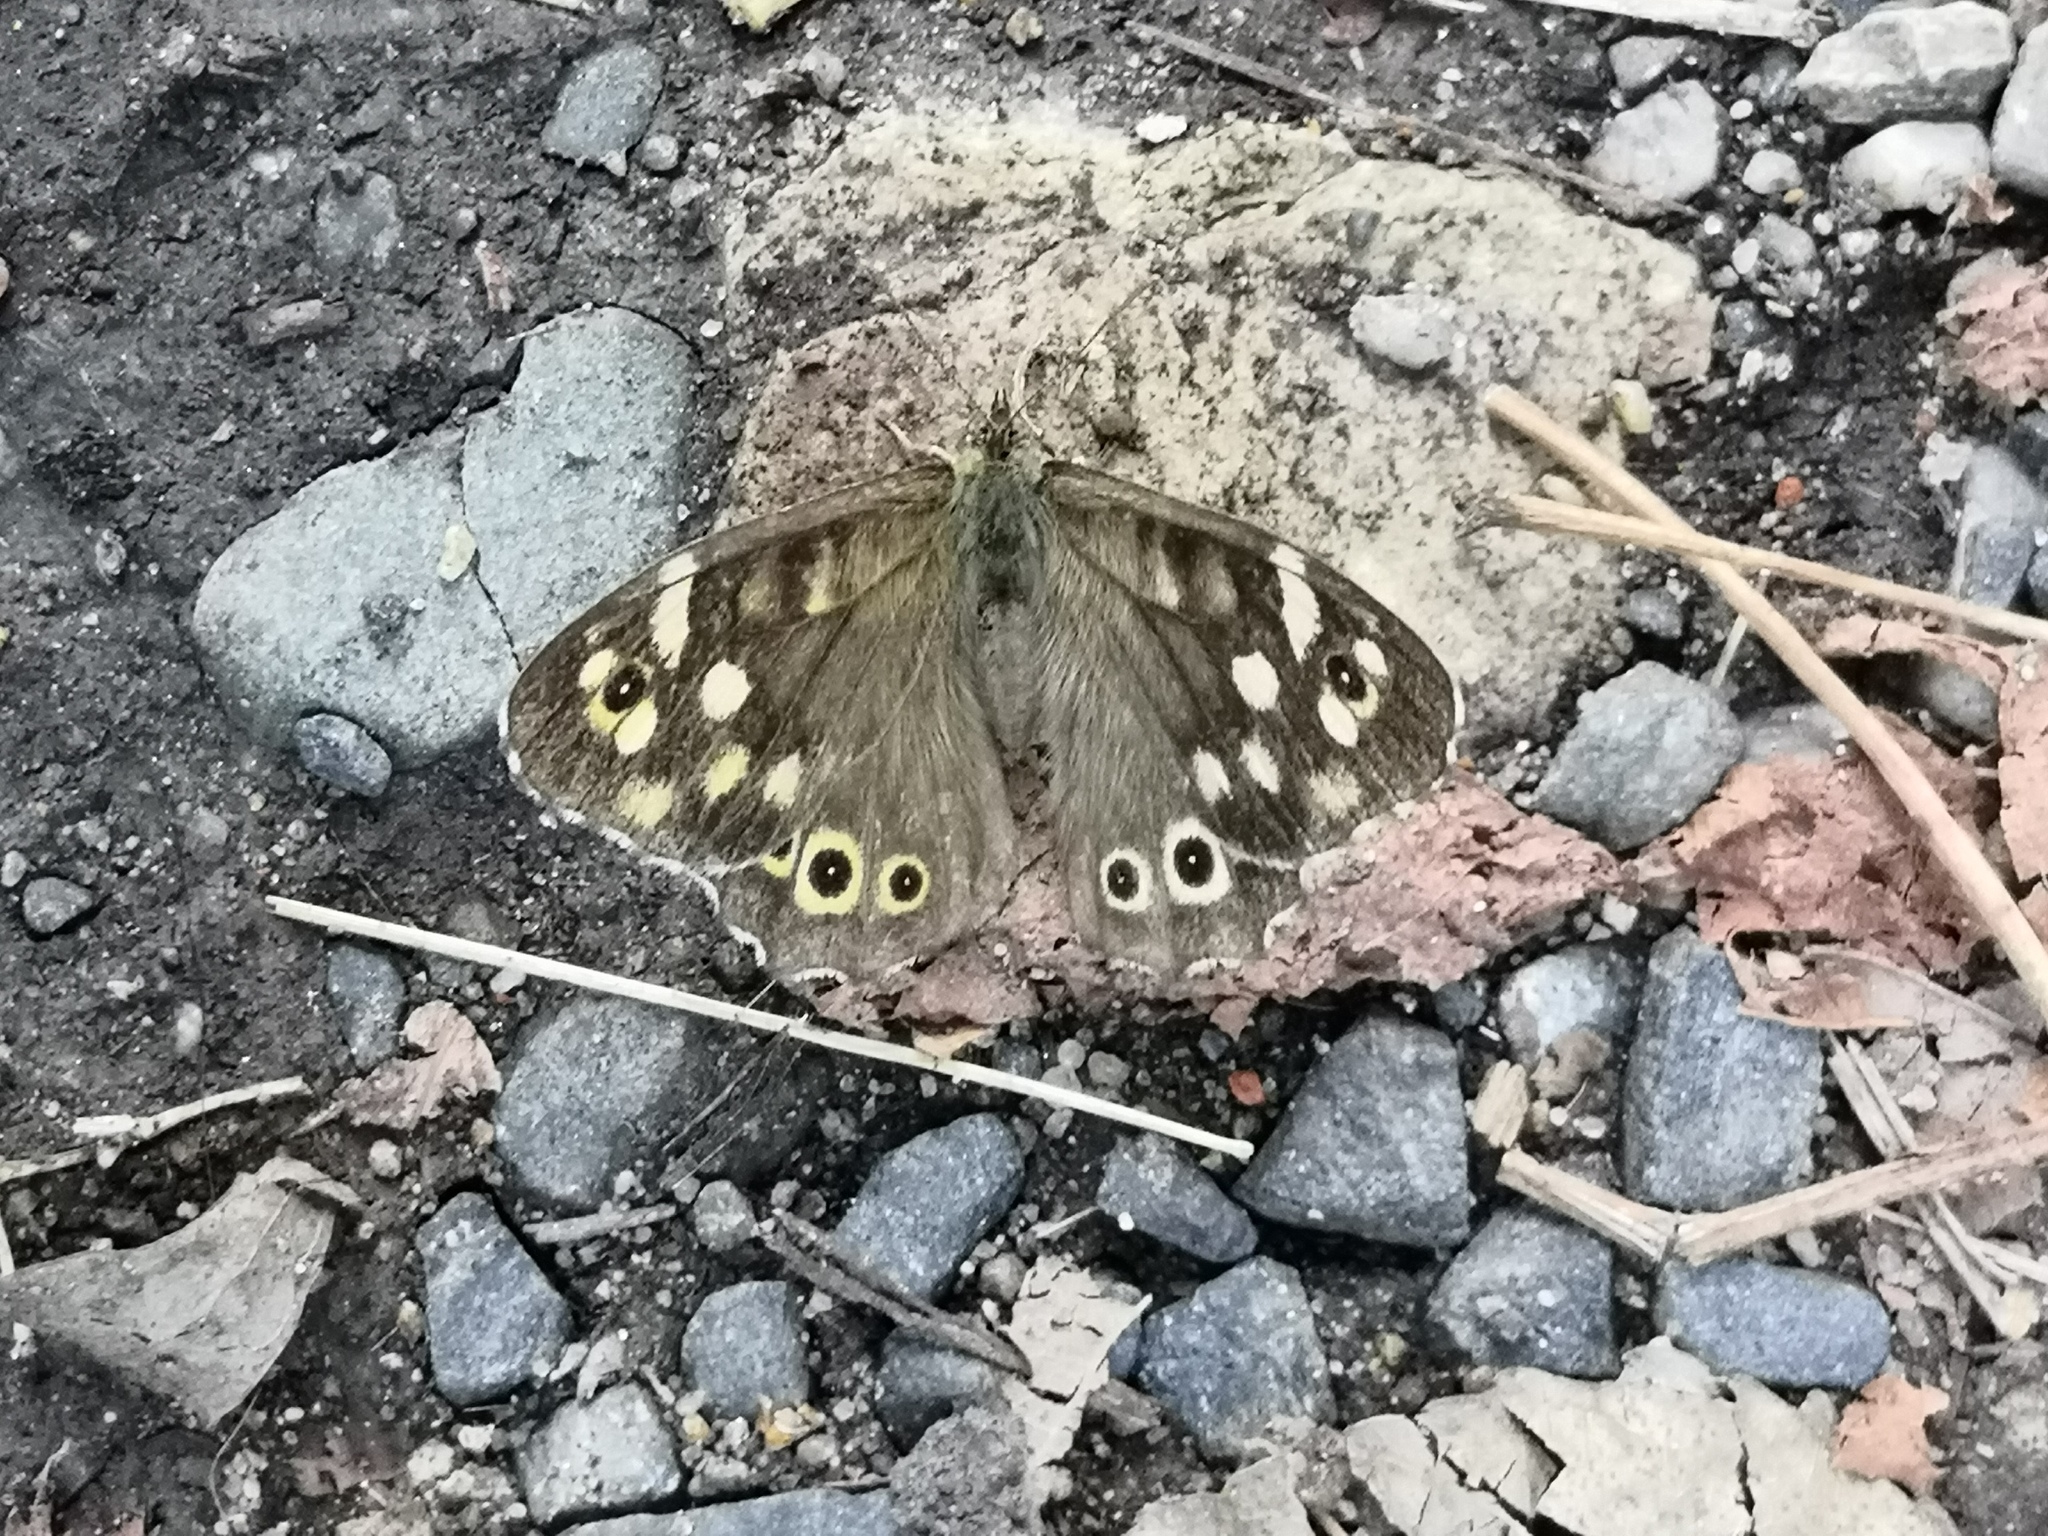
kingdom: Animalia
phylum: Arthropoda
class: Insecta
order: Lepidoptera
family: Nymphalidae
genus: Pararge
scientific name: Pararge aegeria
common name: Speckled wood
